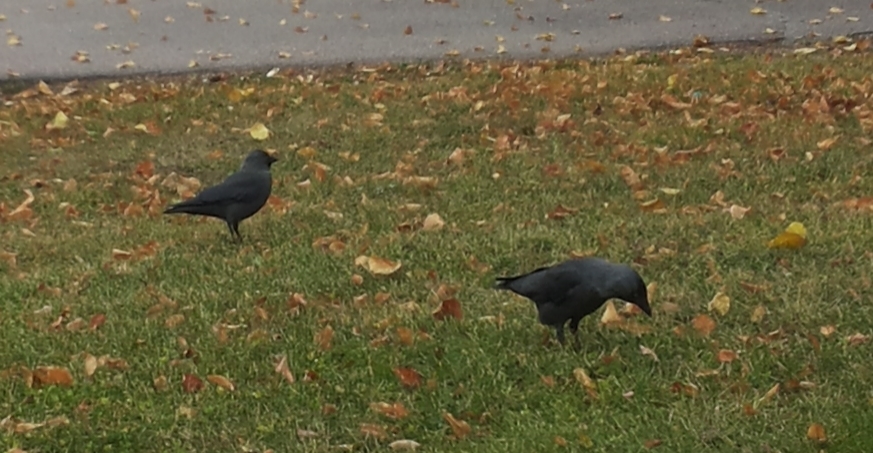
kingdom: Animalia
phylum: Chordata
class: Aves
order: Passeriformes
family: Corvidae
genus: Coloeus
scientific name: Coloeus monedula
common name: Western jackdaw
